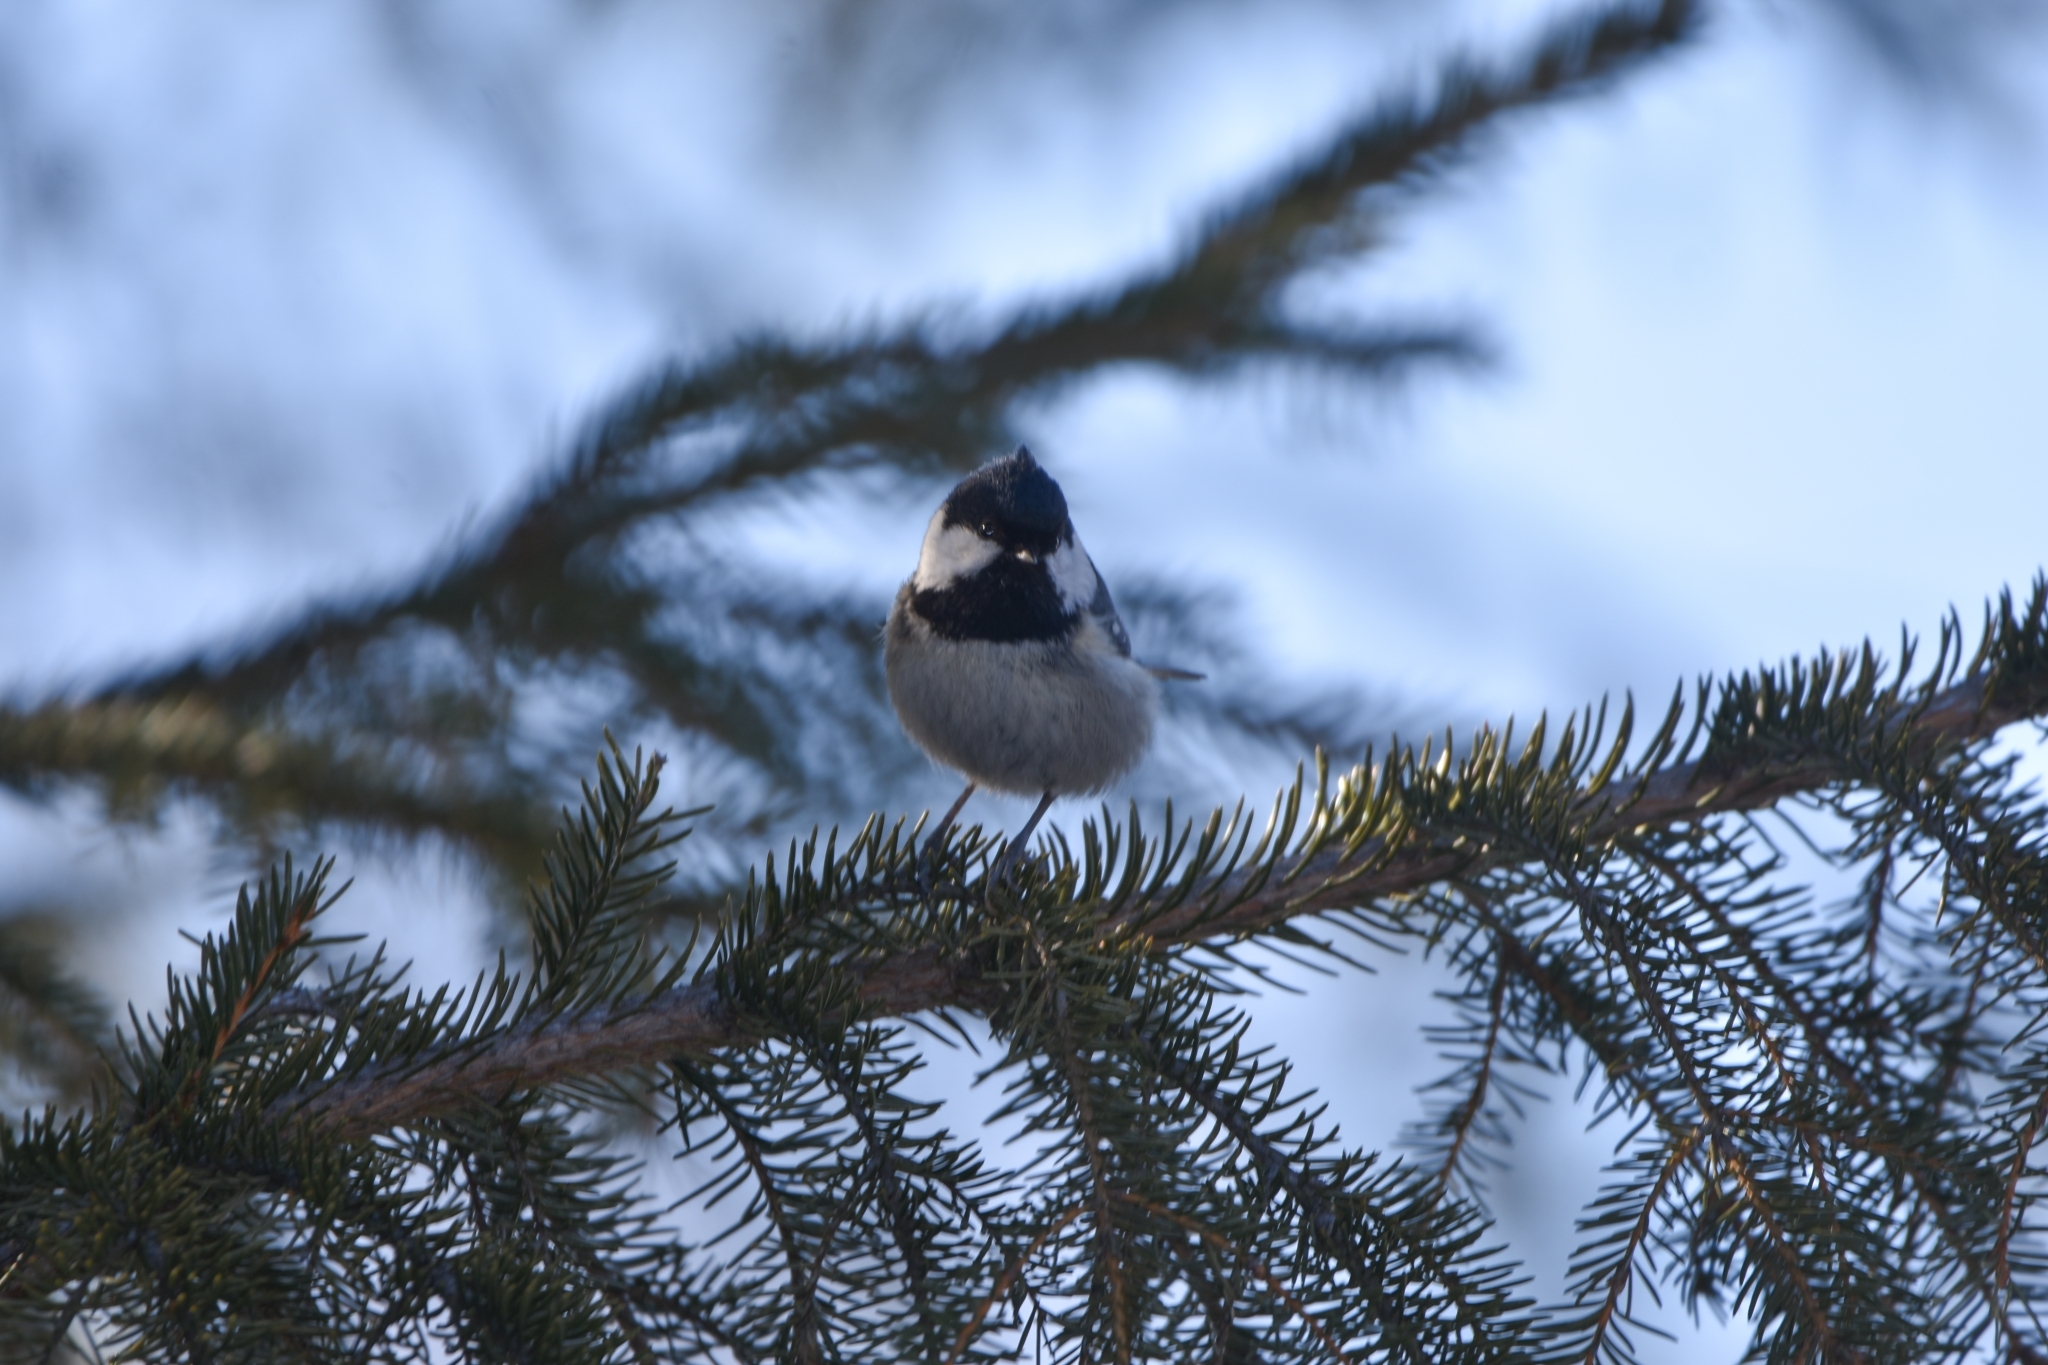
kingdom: Animalia
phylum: Chordata
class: Aves
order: Passeriformes
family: Paridae
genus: Periparus
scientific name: Periparus ater
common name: Coal tit
